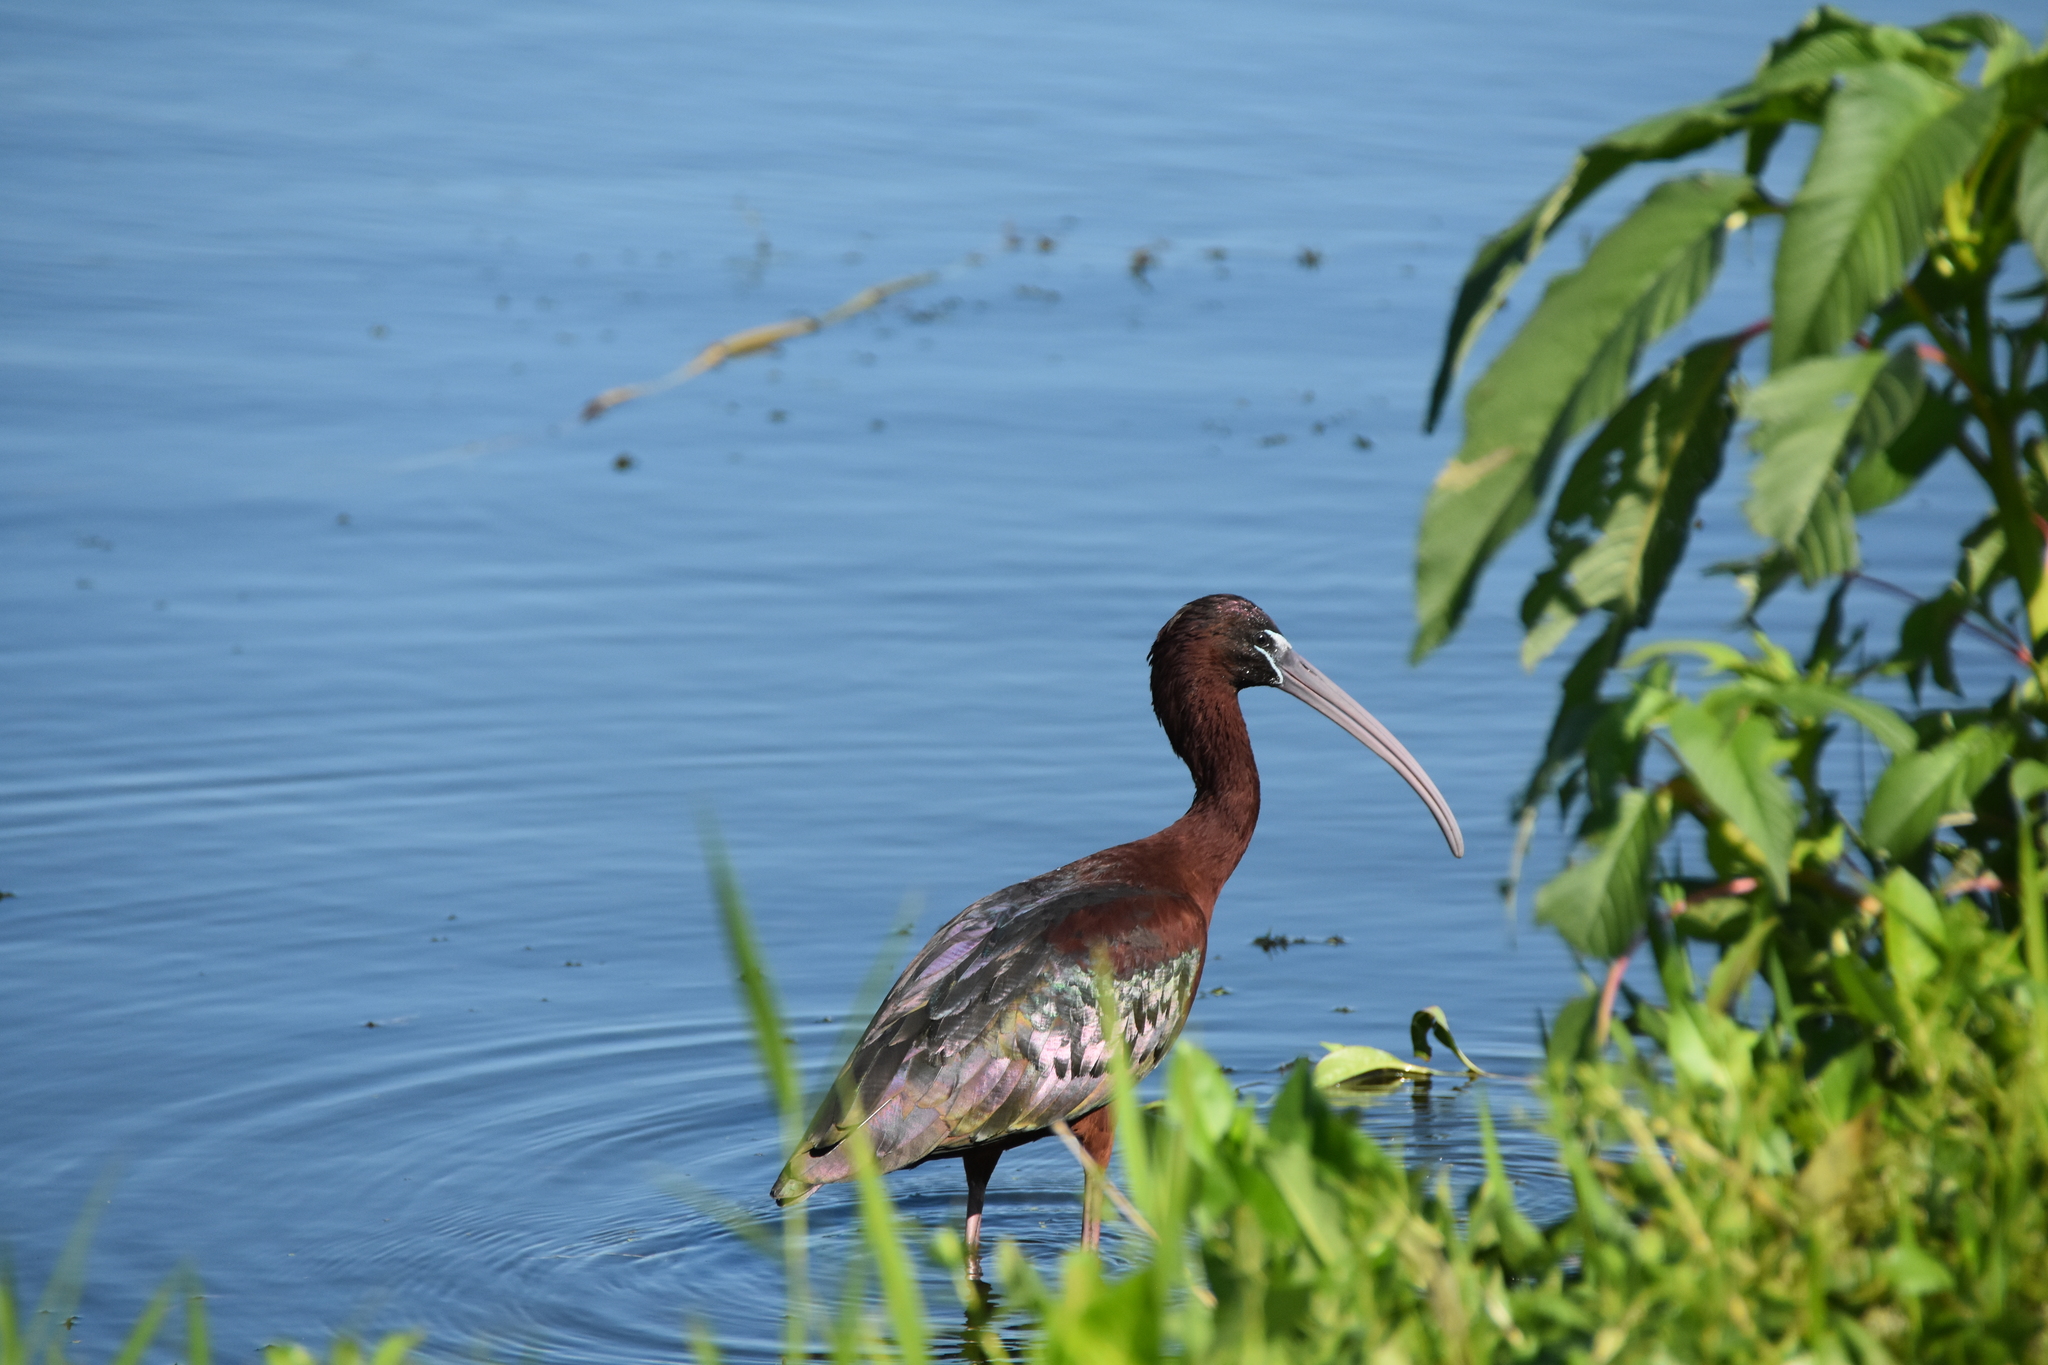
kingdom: Animalia
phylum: Chordata
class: Aves
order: Pelecaniformes
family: Threskiornithidae
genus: Plegadis
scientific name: Plegadis falcinellus
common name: Glossy ibis
